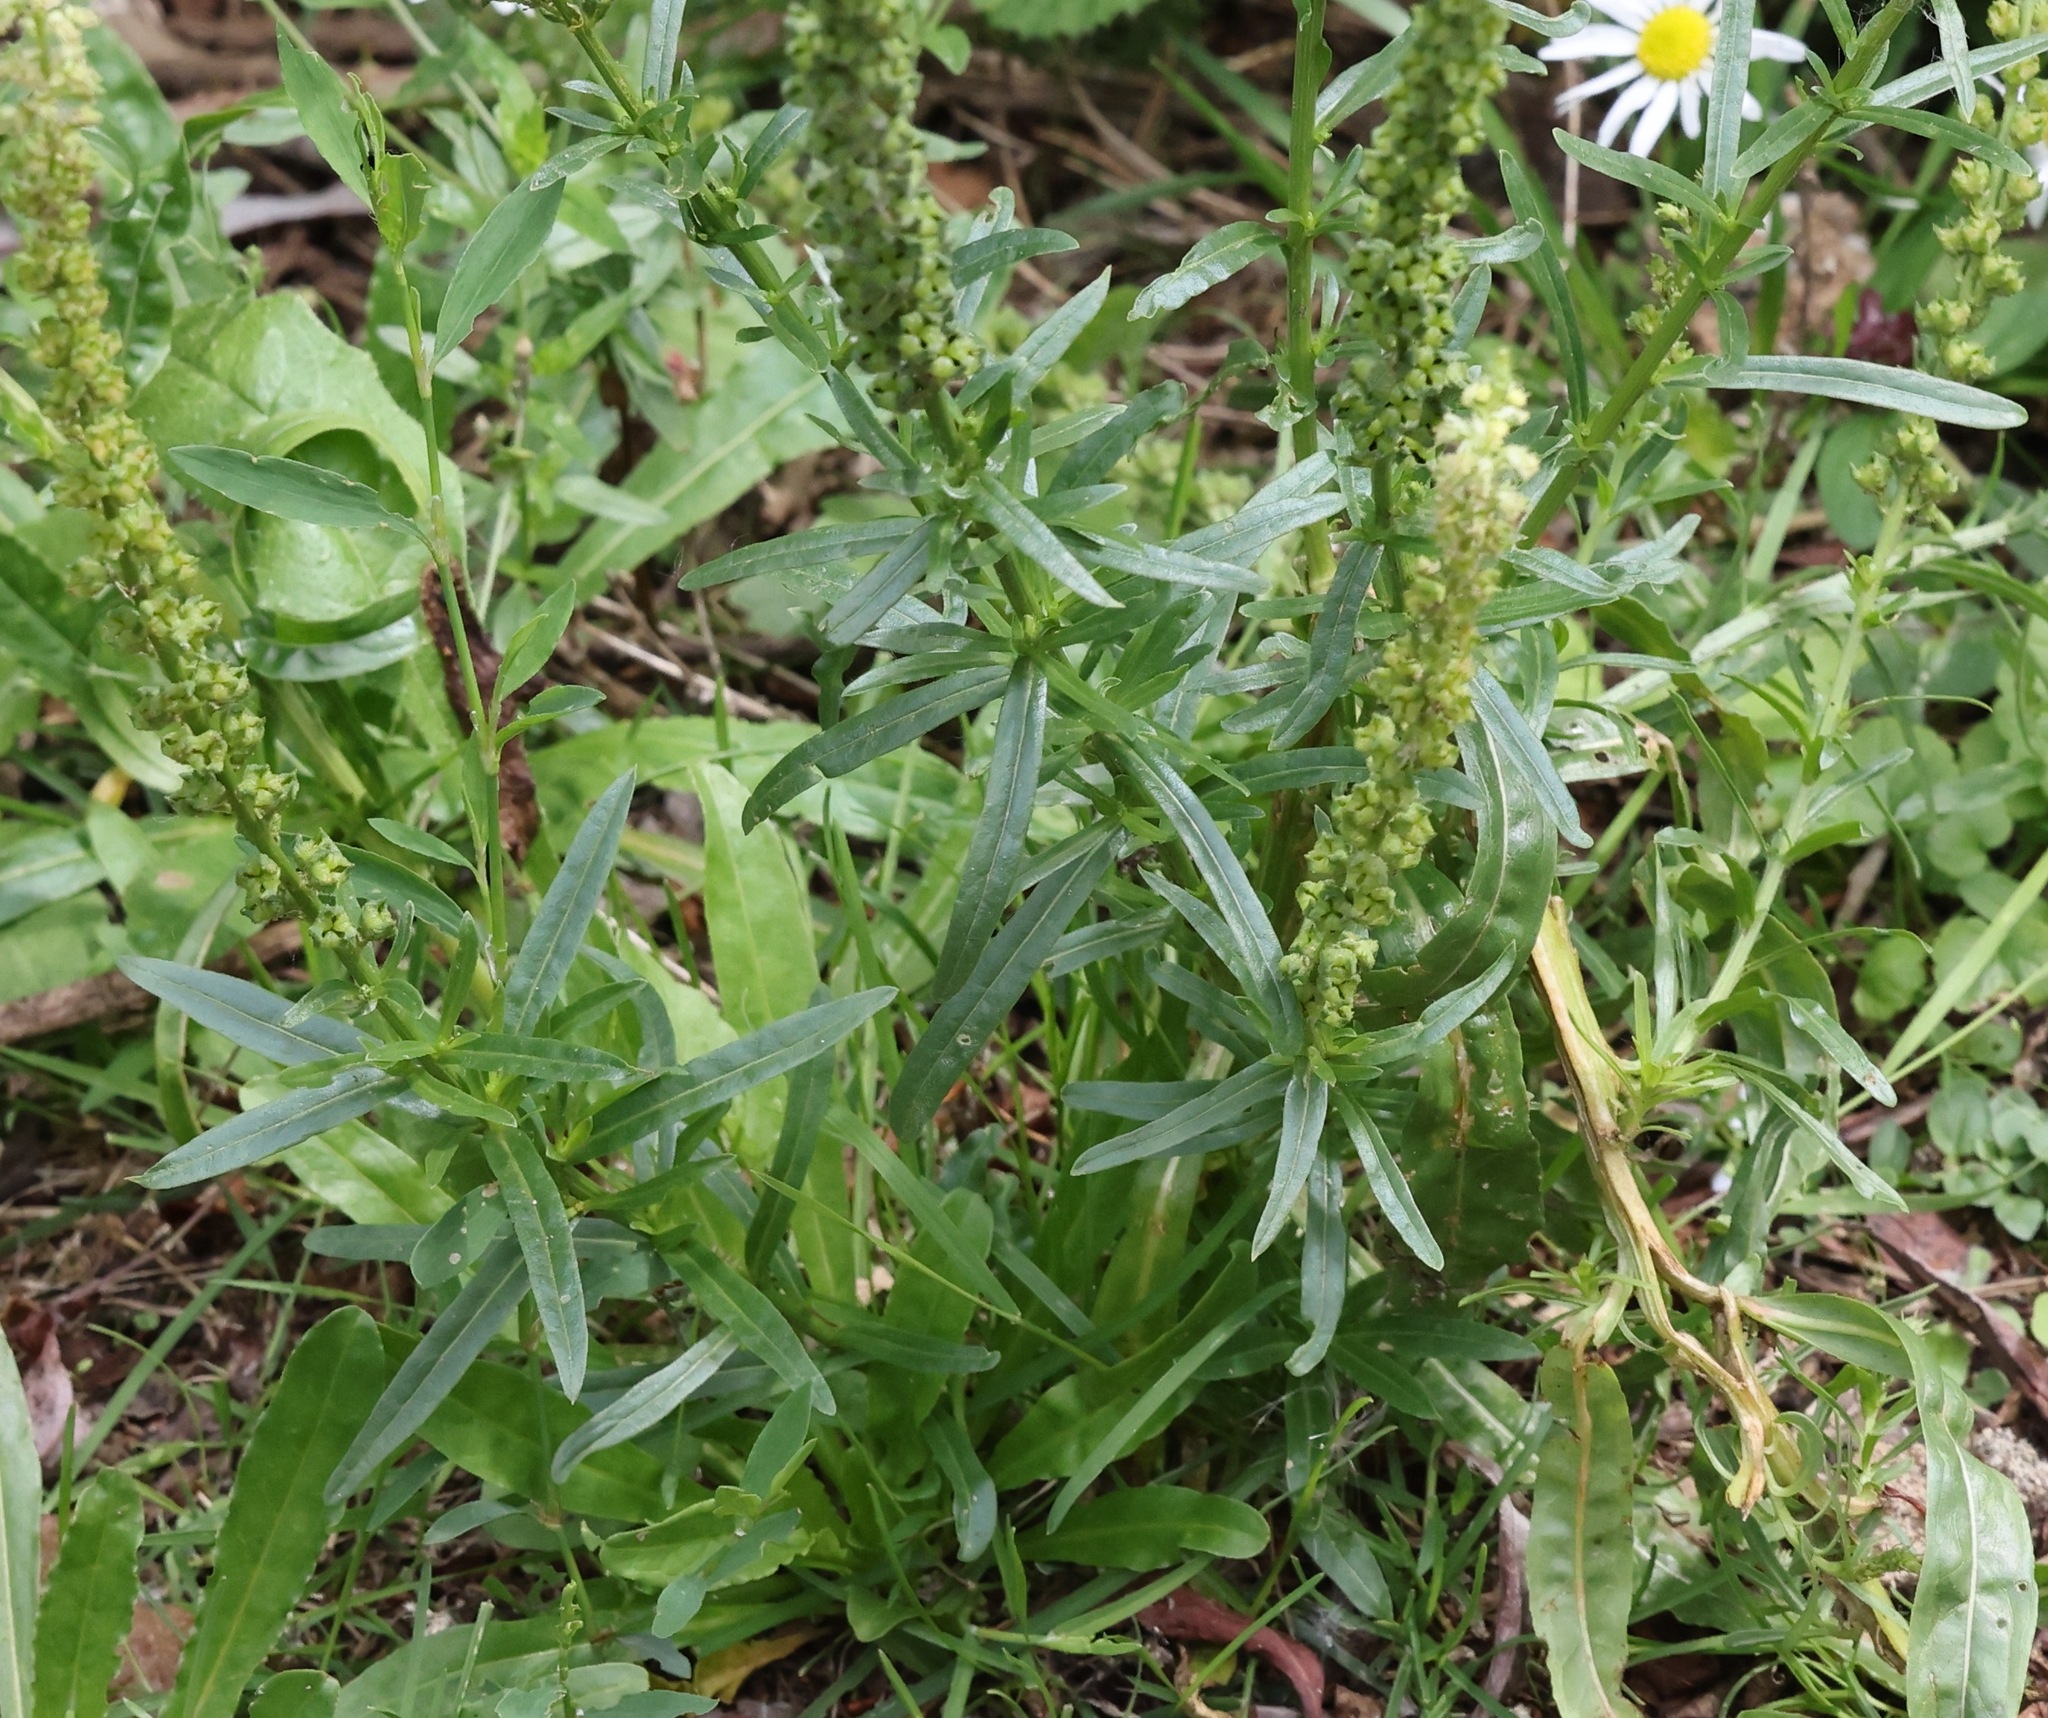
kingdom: Plantae
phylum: Tracheophyta
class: Magnoliopsida
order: Brassicales
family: Resedaceae
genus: Reseda
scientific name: Reseda luteola
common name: Weld
